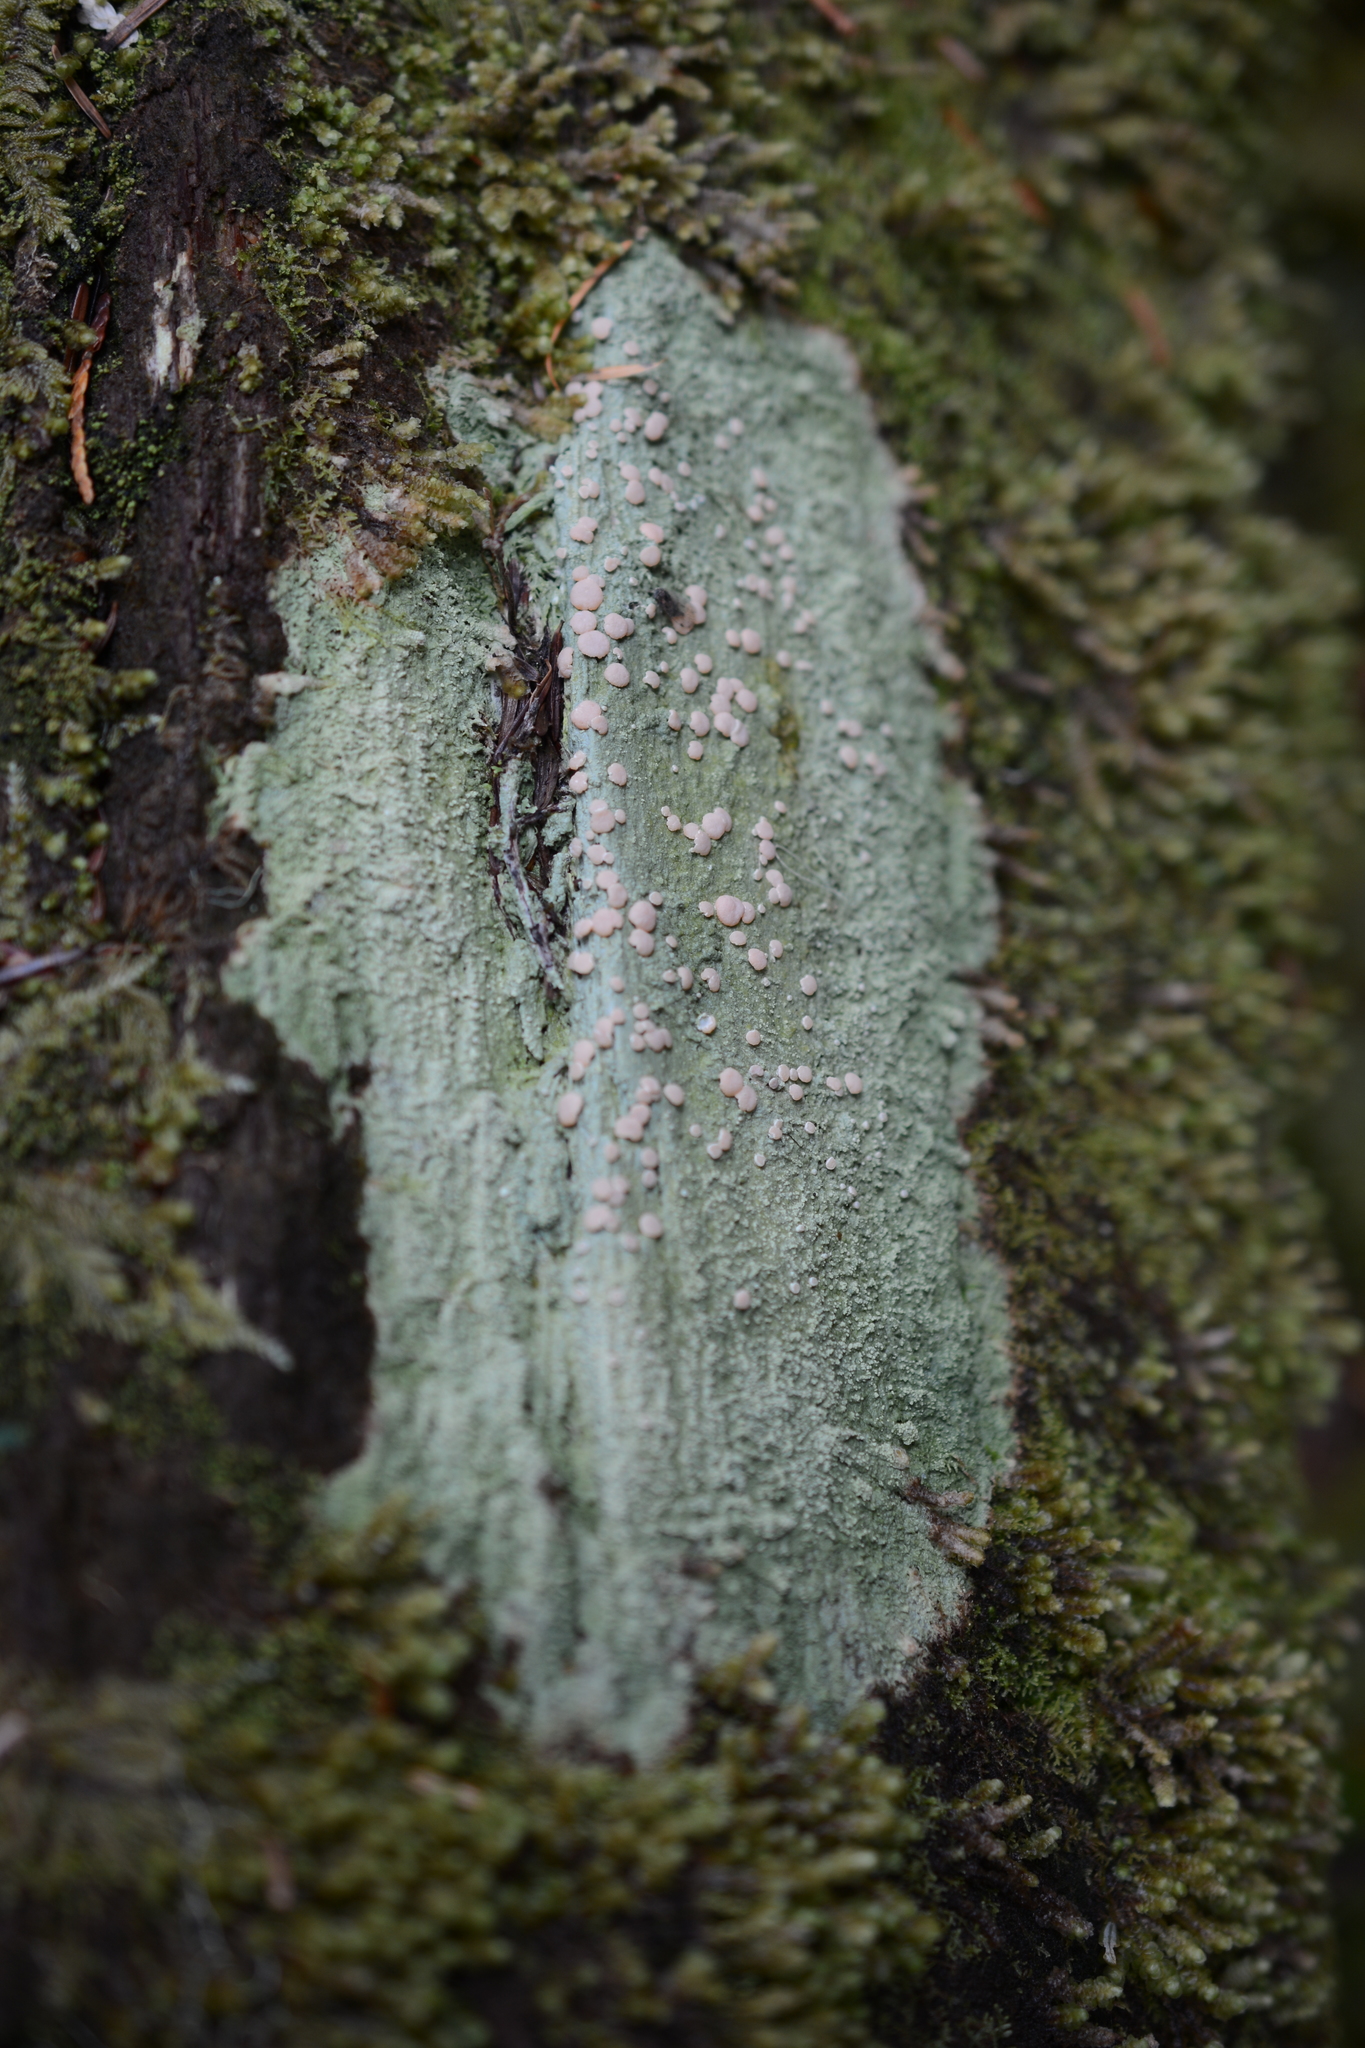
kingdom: Fungi
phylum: Ascomycota
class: Lecanoromycetes
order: Pertusariales
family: Icmadophilaceae
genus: Icmadophila
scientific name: Icmadophila ericetorum
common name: Candy lichen
